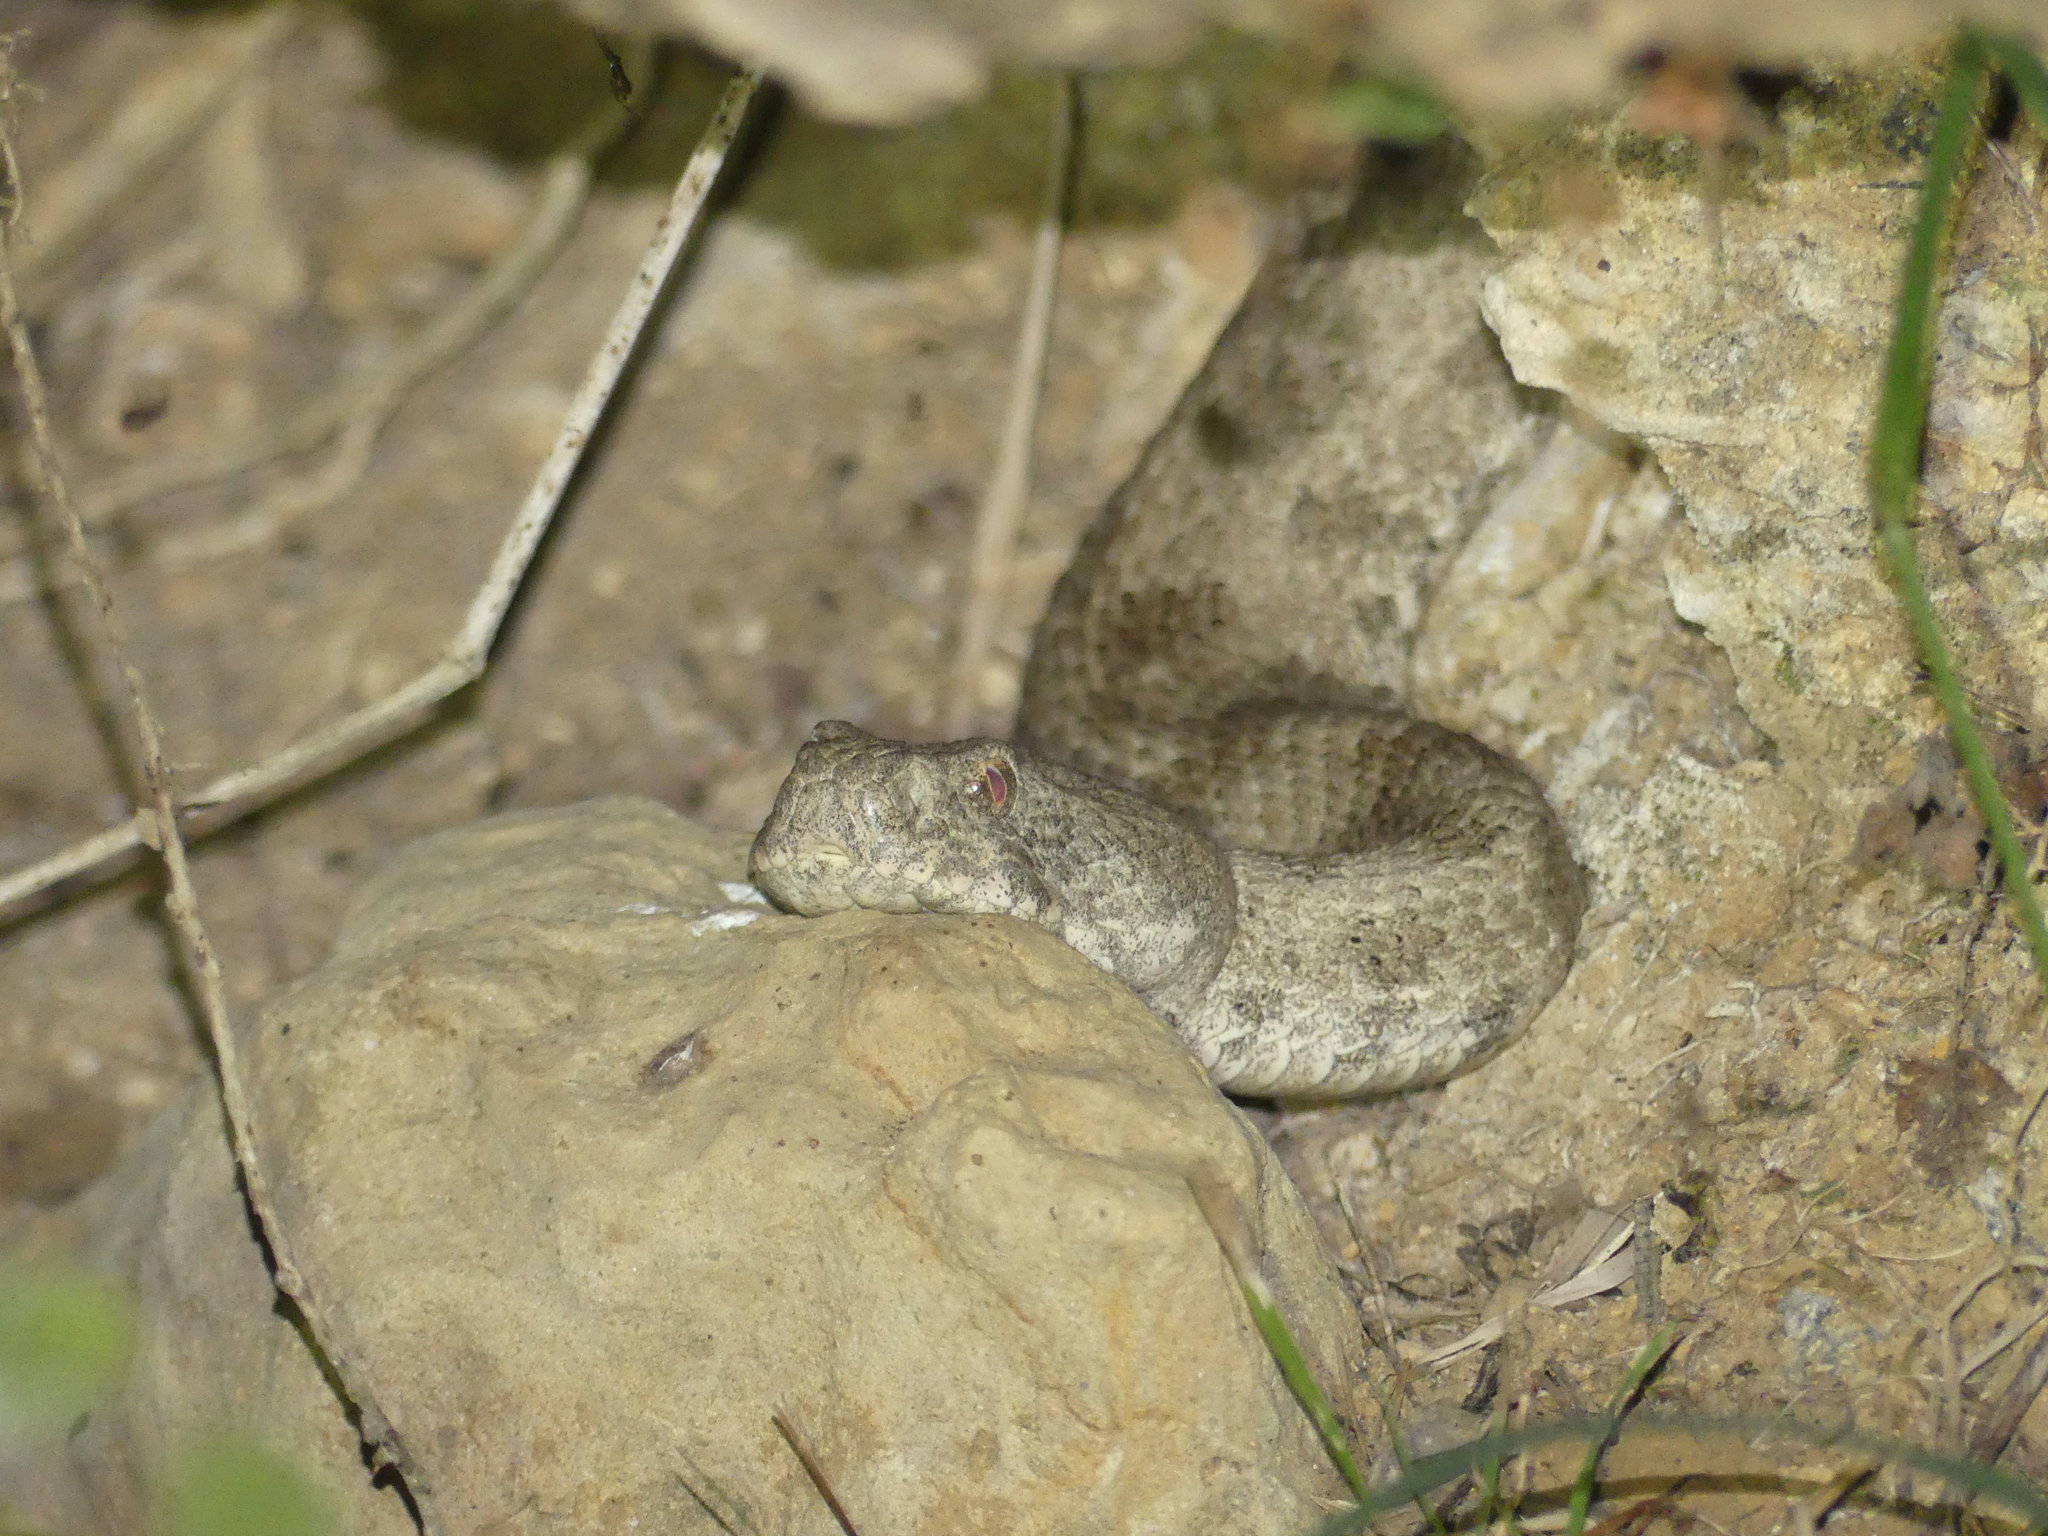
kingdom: Animalia
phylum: Chordata
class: Squamata
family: Viperidae
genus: Macrovipera
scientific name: Macrovipera lebetinus
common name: Levantine viper
